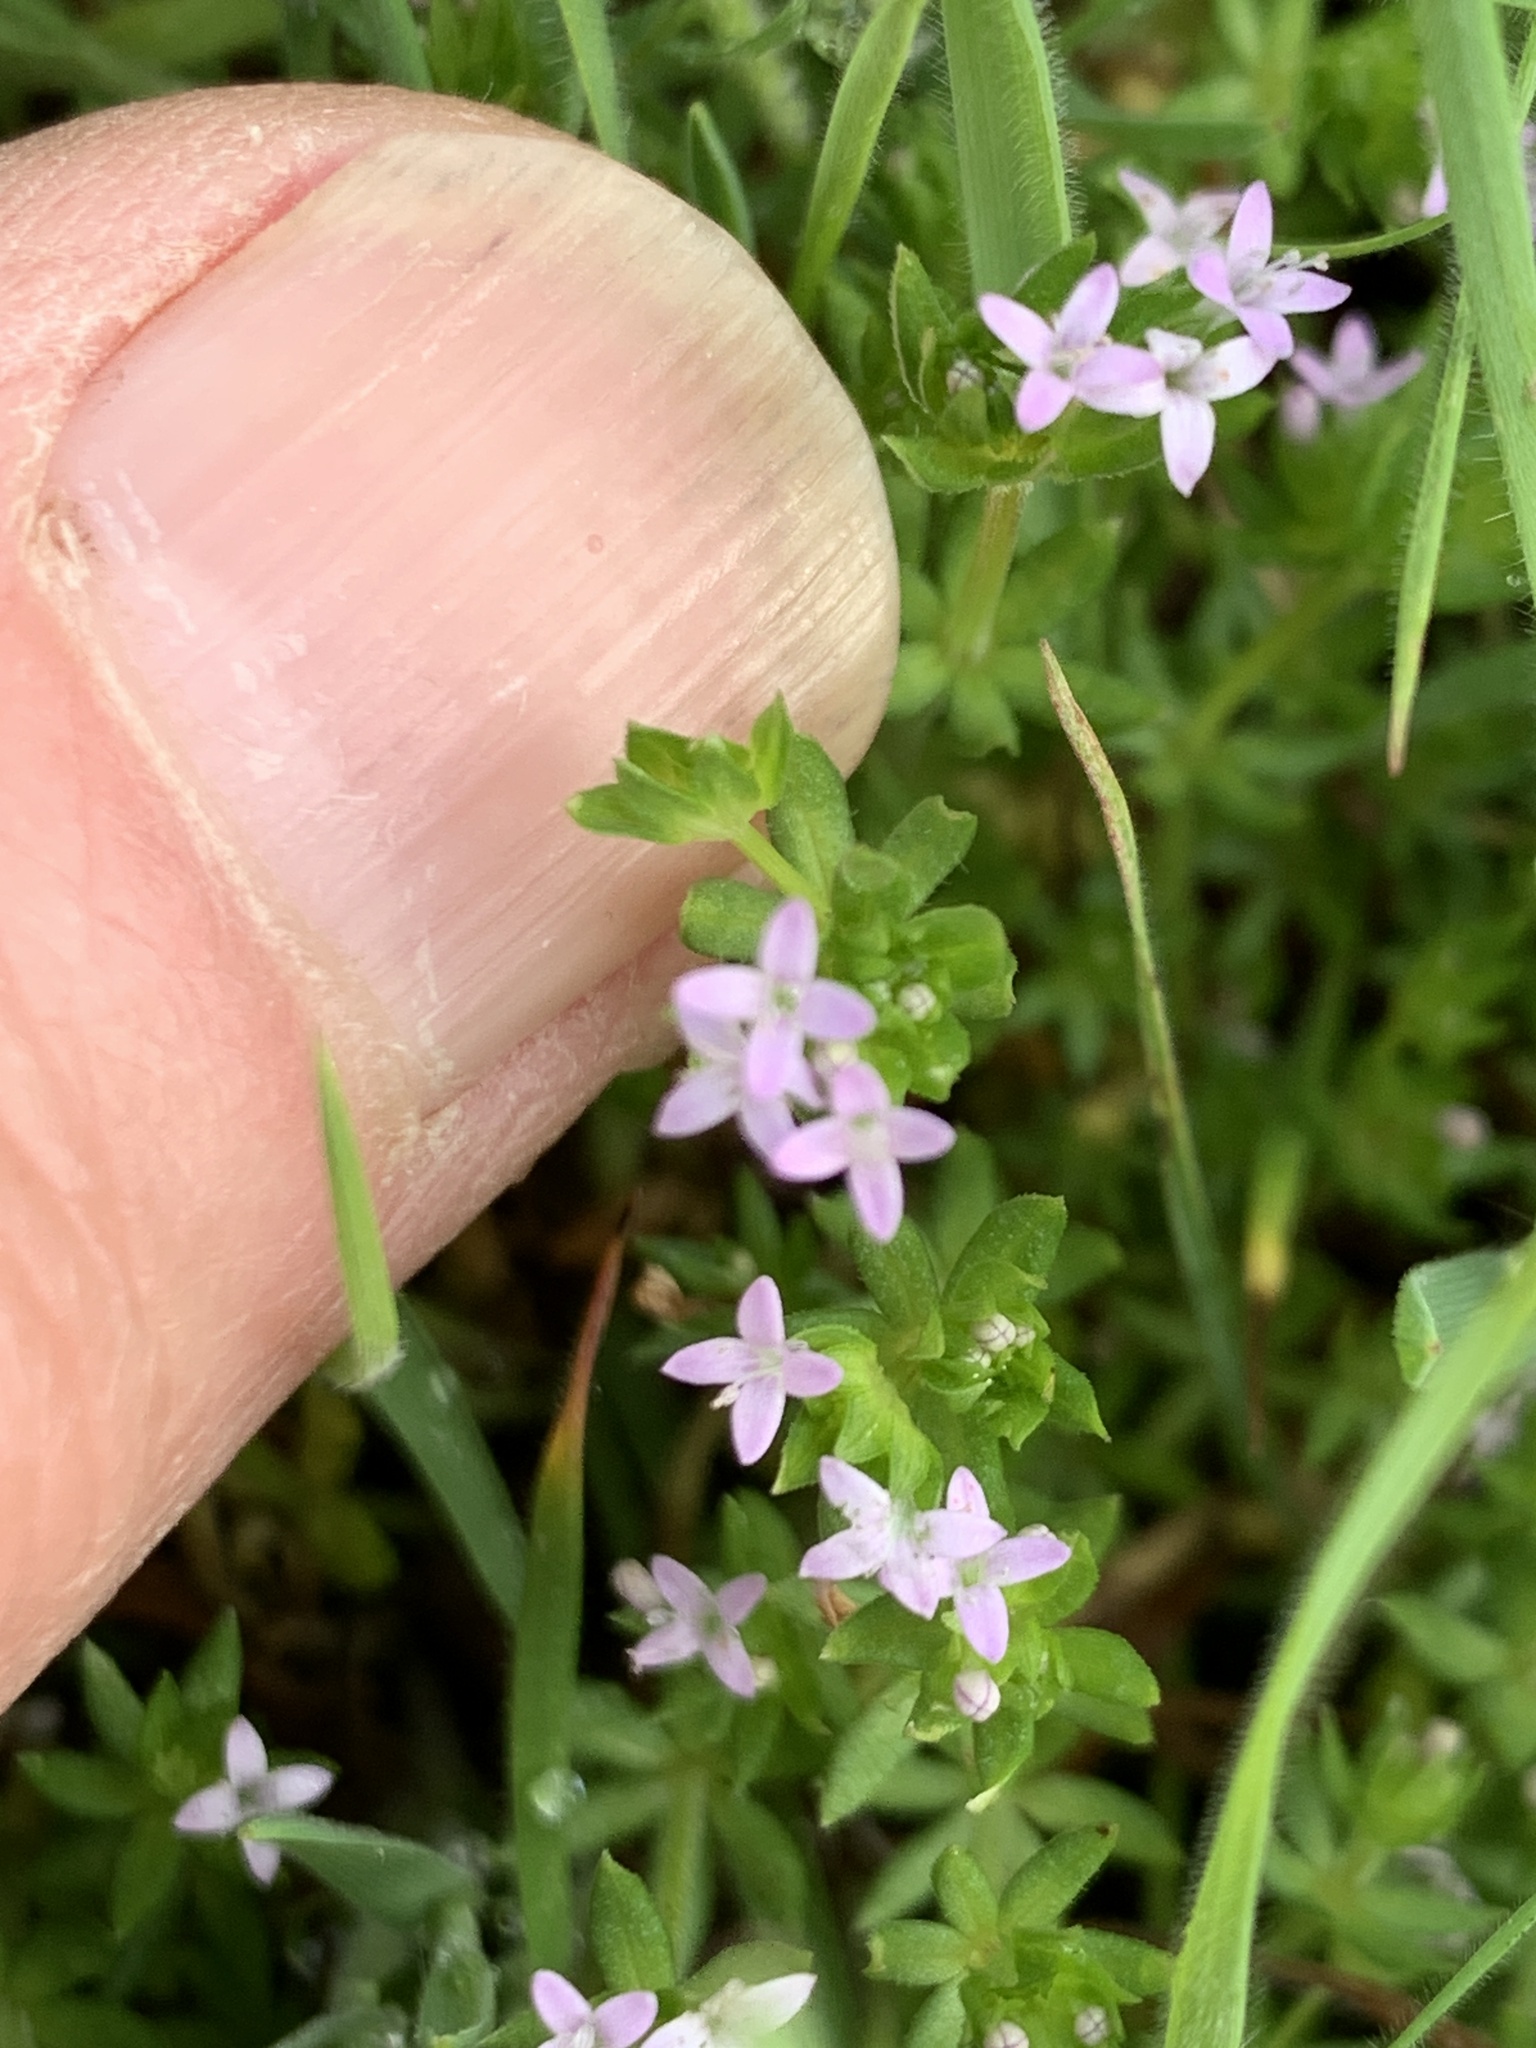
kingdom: Plantae
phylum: Tracheophyta
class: Magnoliopsida
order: Gentianales
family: Rubiaceae
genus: Sherardia
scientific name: Sherardia arvensis
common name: Field madder
